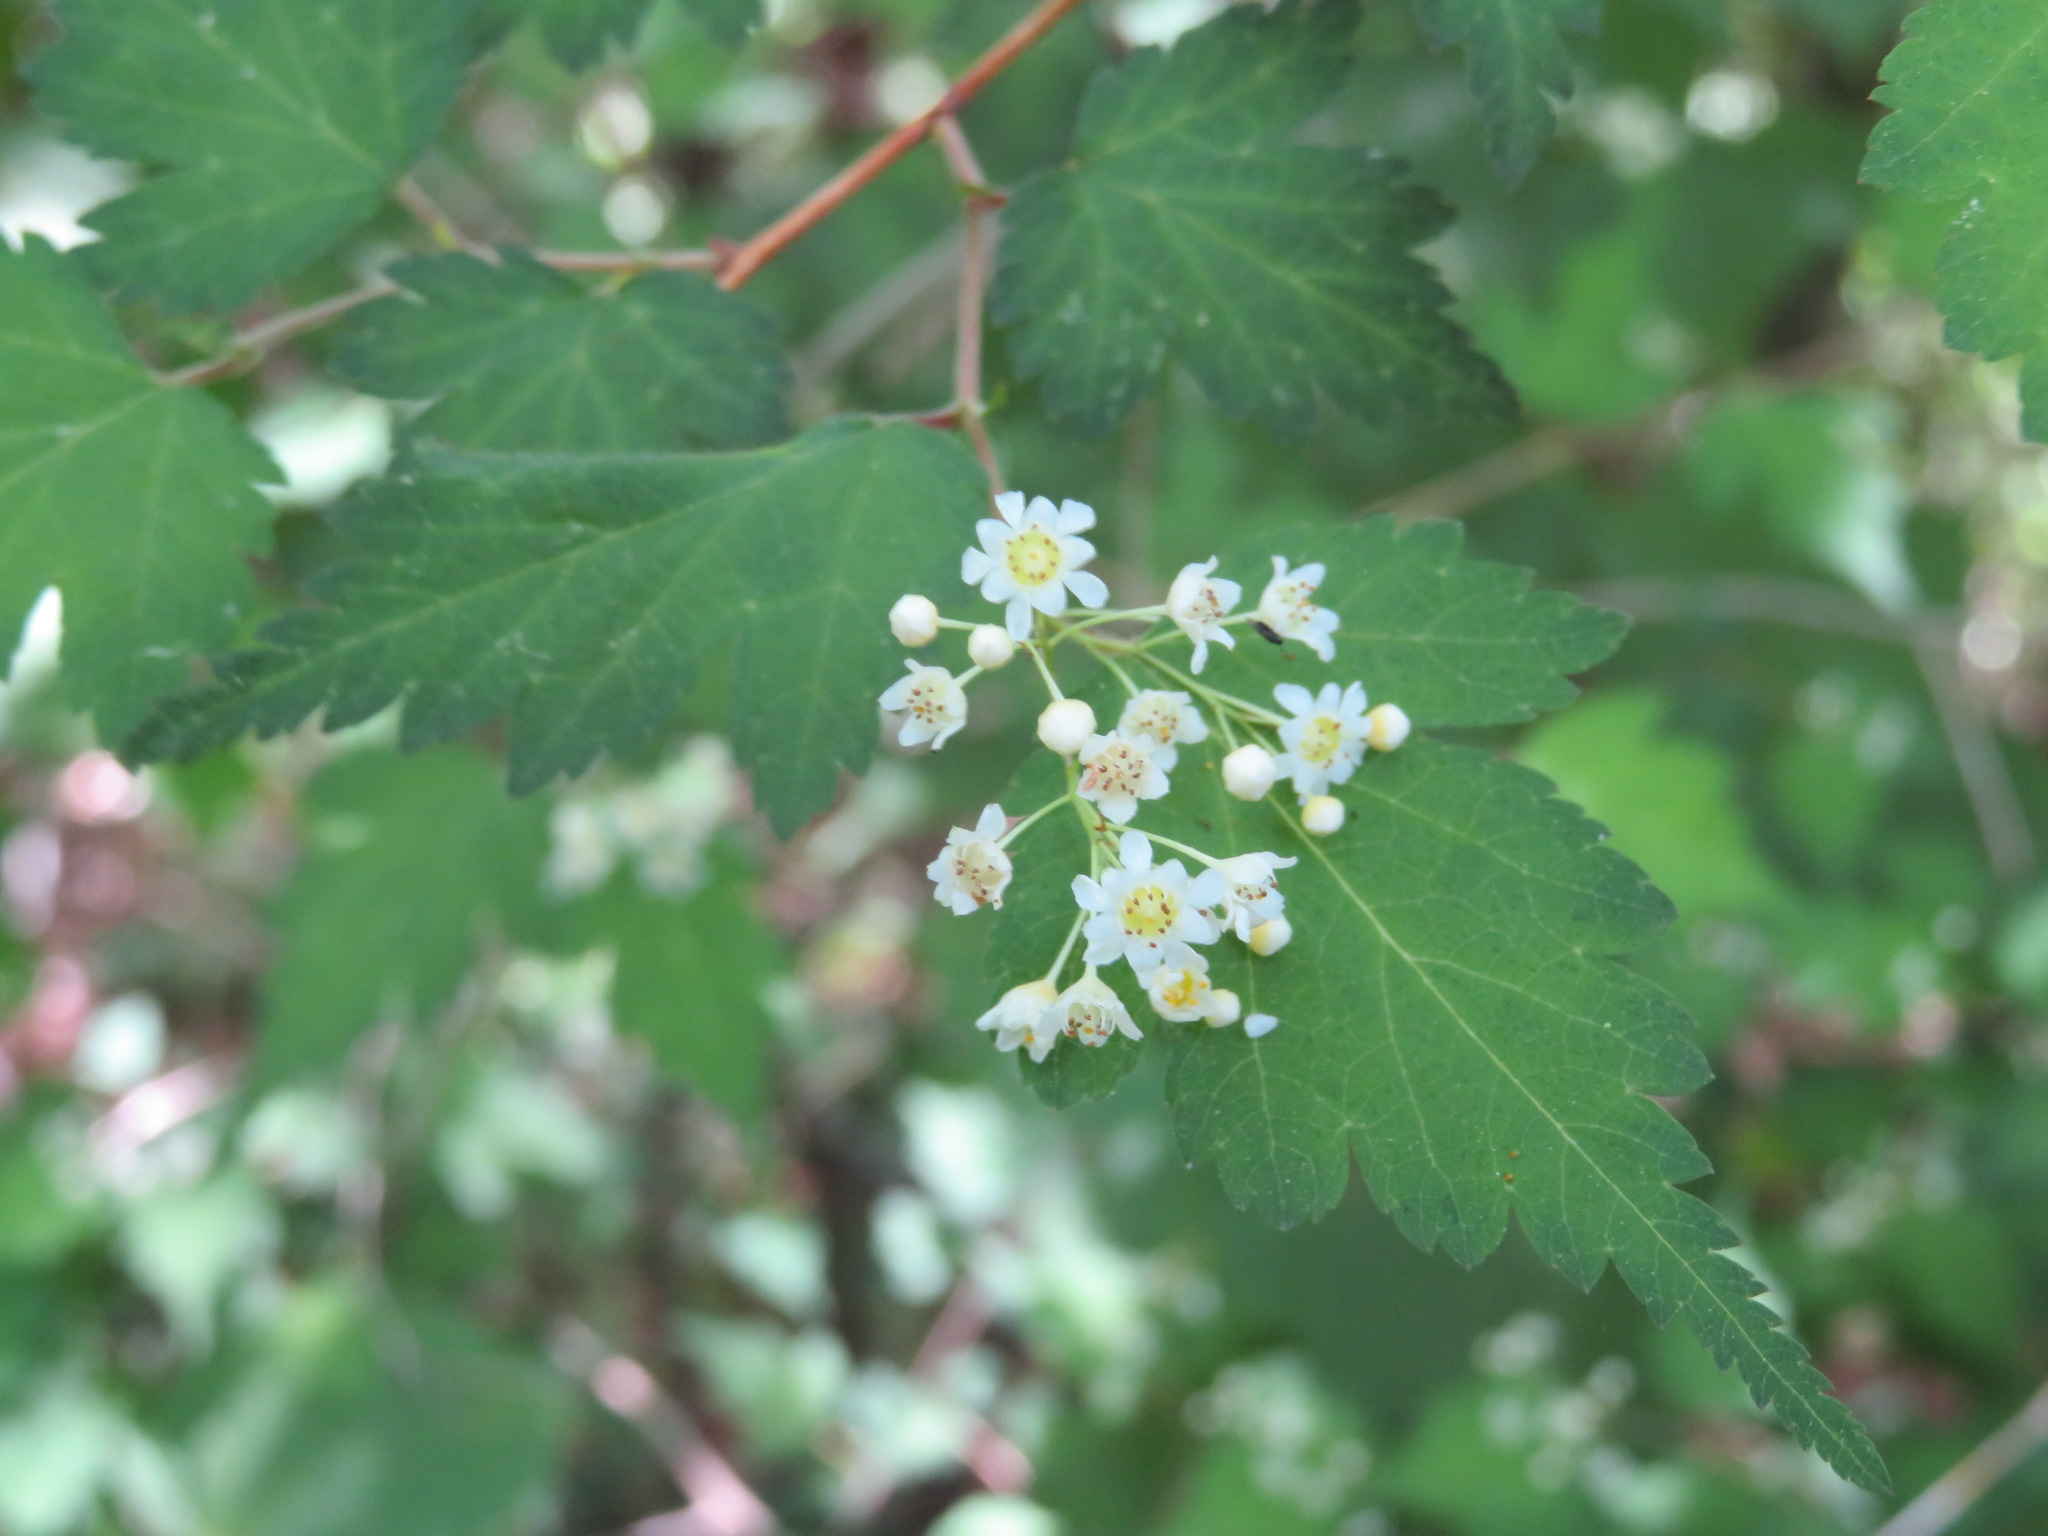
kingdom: Plantae
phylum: Tracheophyta
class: Magnoliopsida
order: Rosales
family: Rosaceae
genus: Neillia
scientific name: Neillia incisa
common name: Laceshrub
